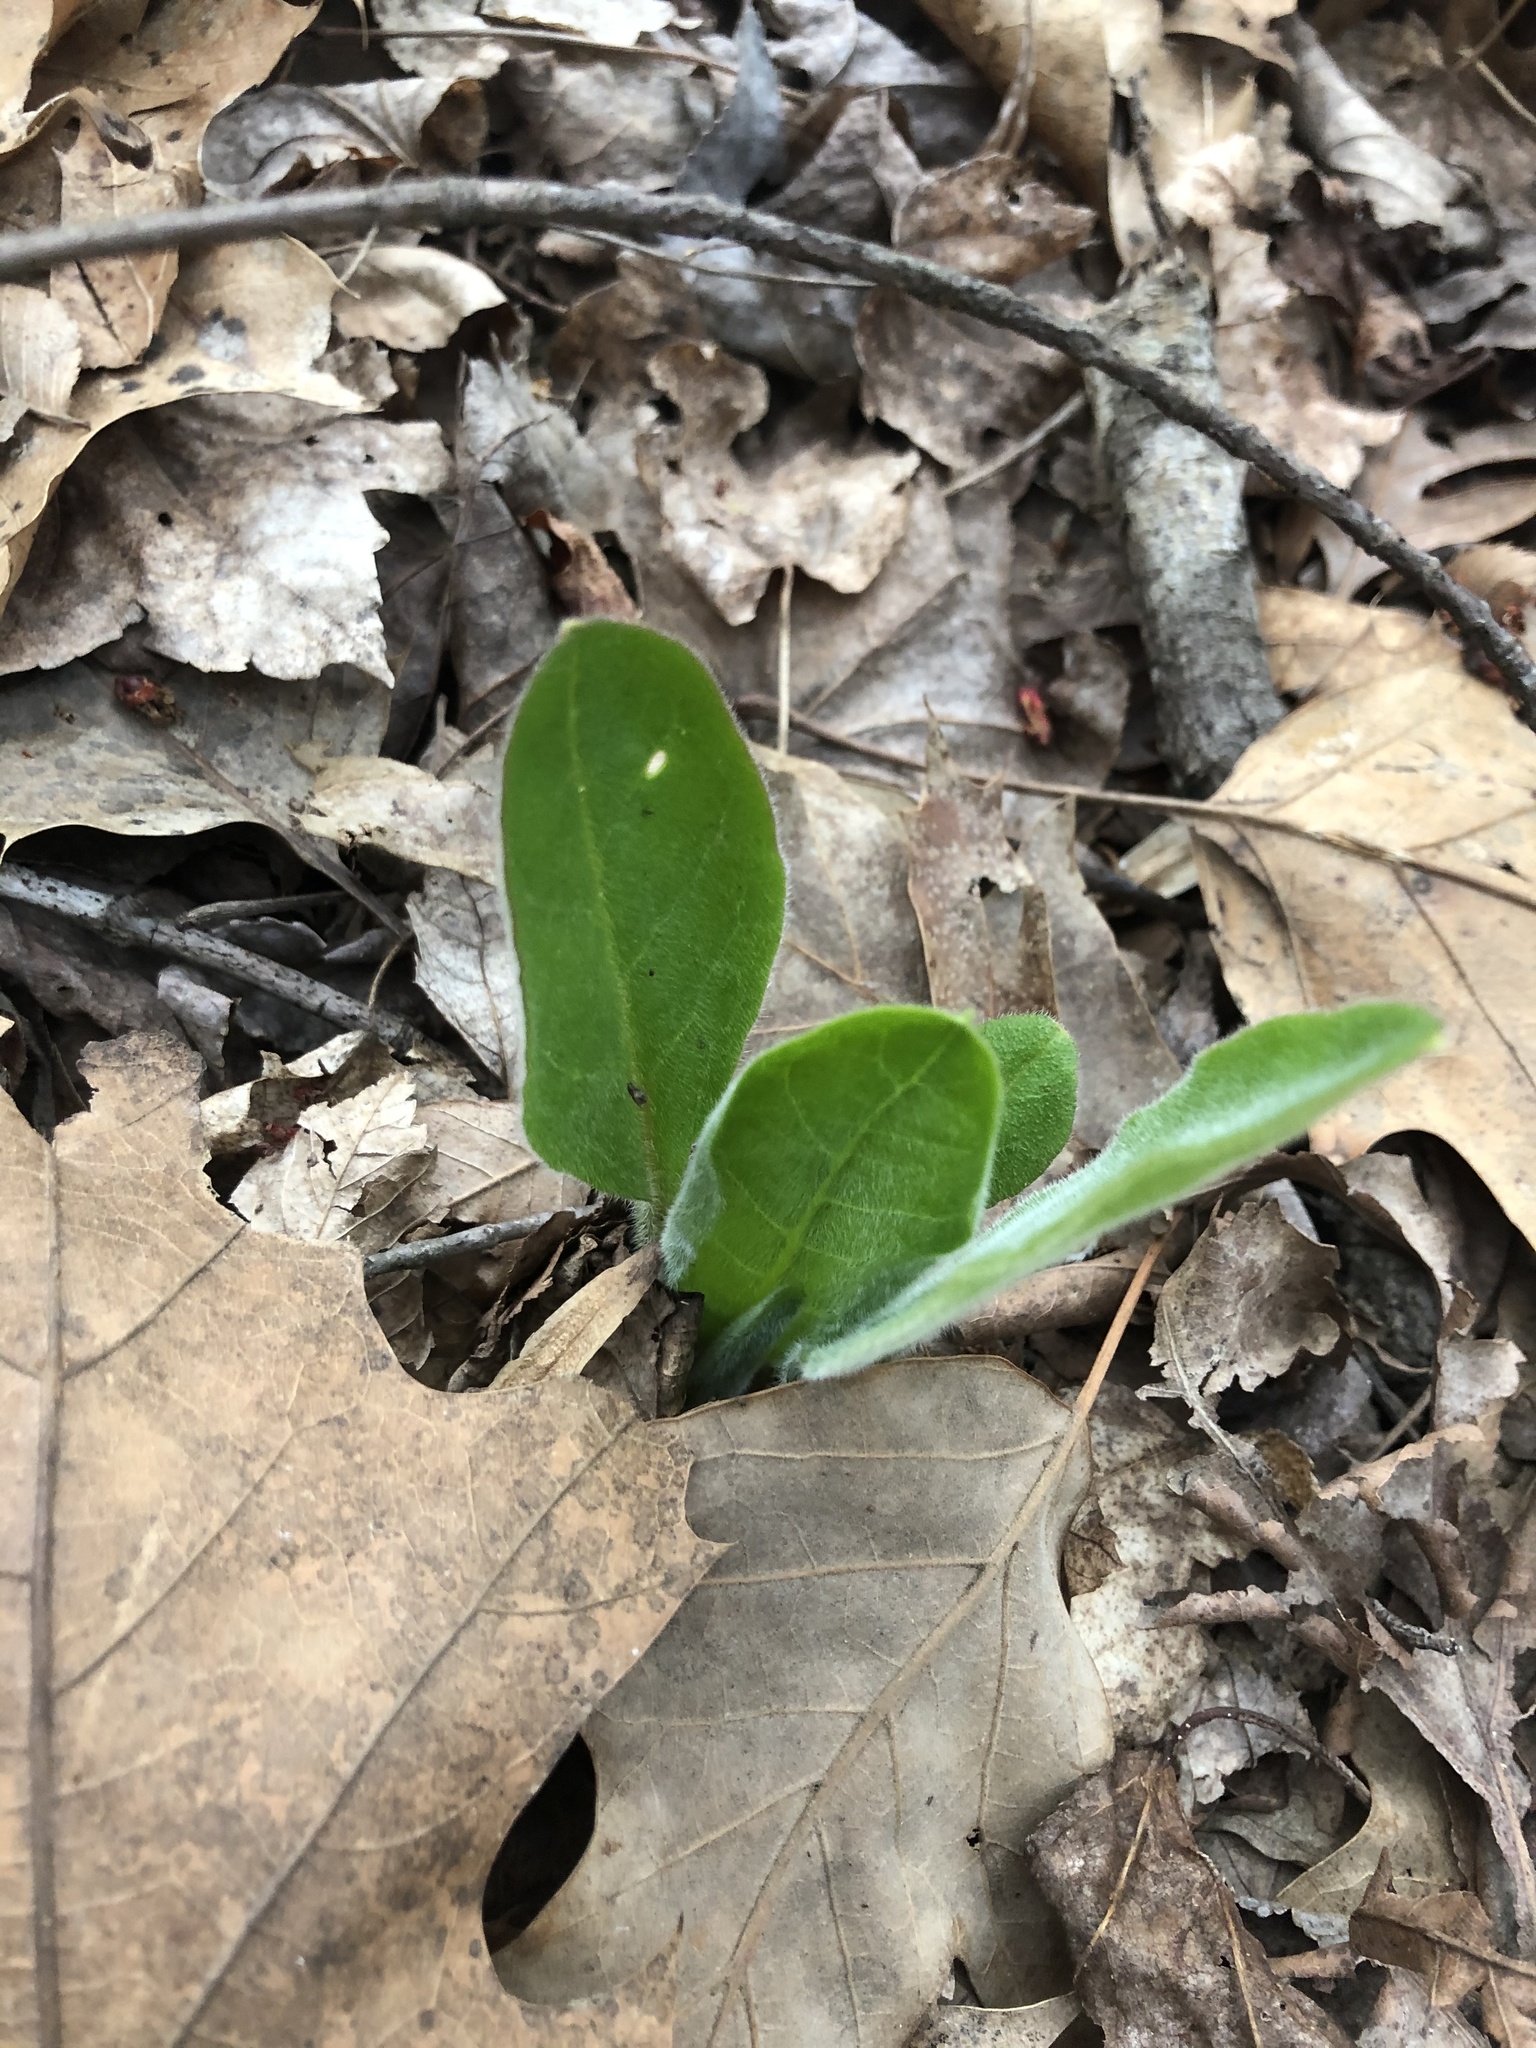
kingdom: Plantae
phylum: Tracheophyta
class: Magnoliopsida
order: Boraginales
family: Boraginaceae
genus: Andersonglossum
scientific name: Andersonglossum virginianum
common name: Wild comfrey
